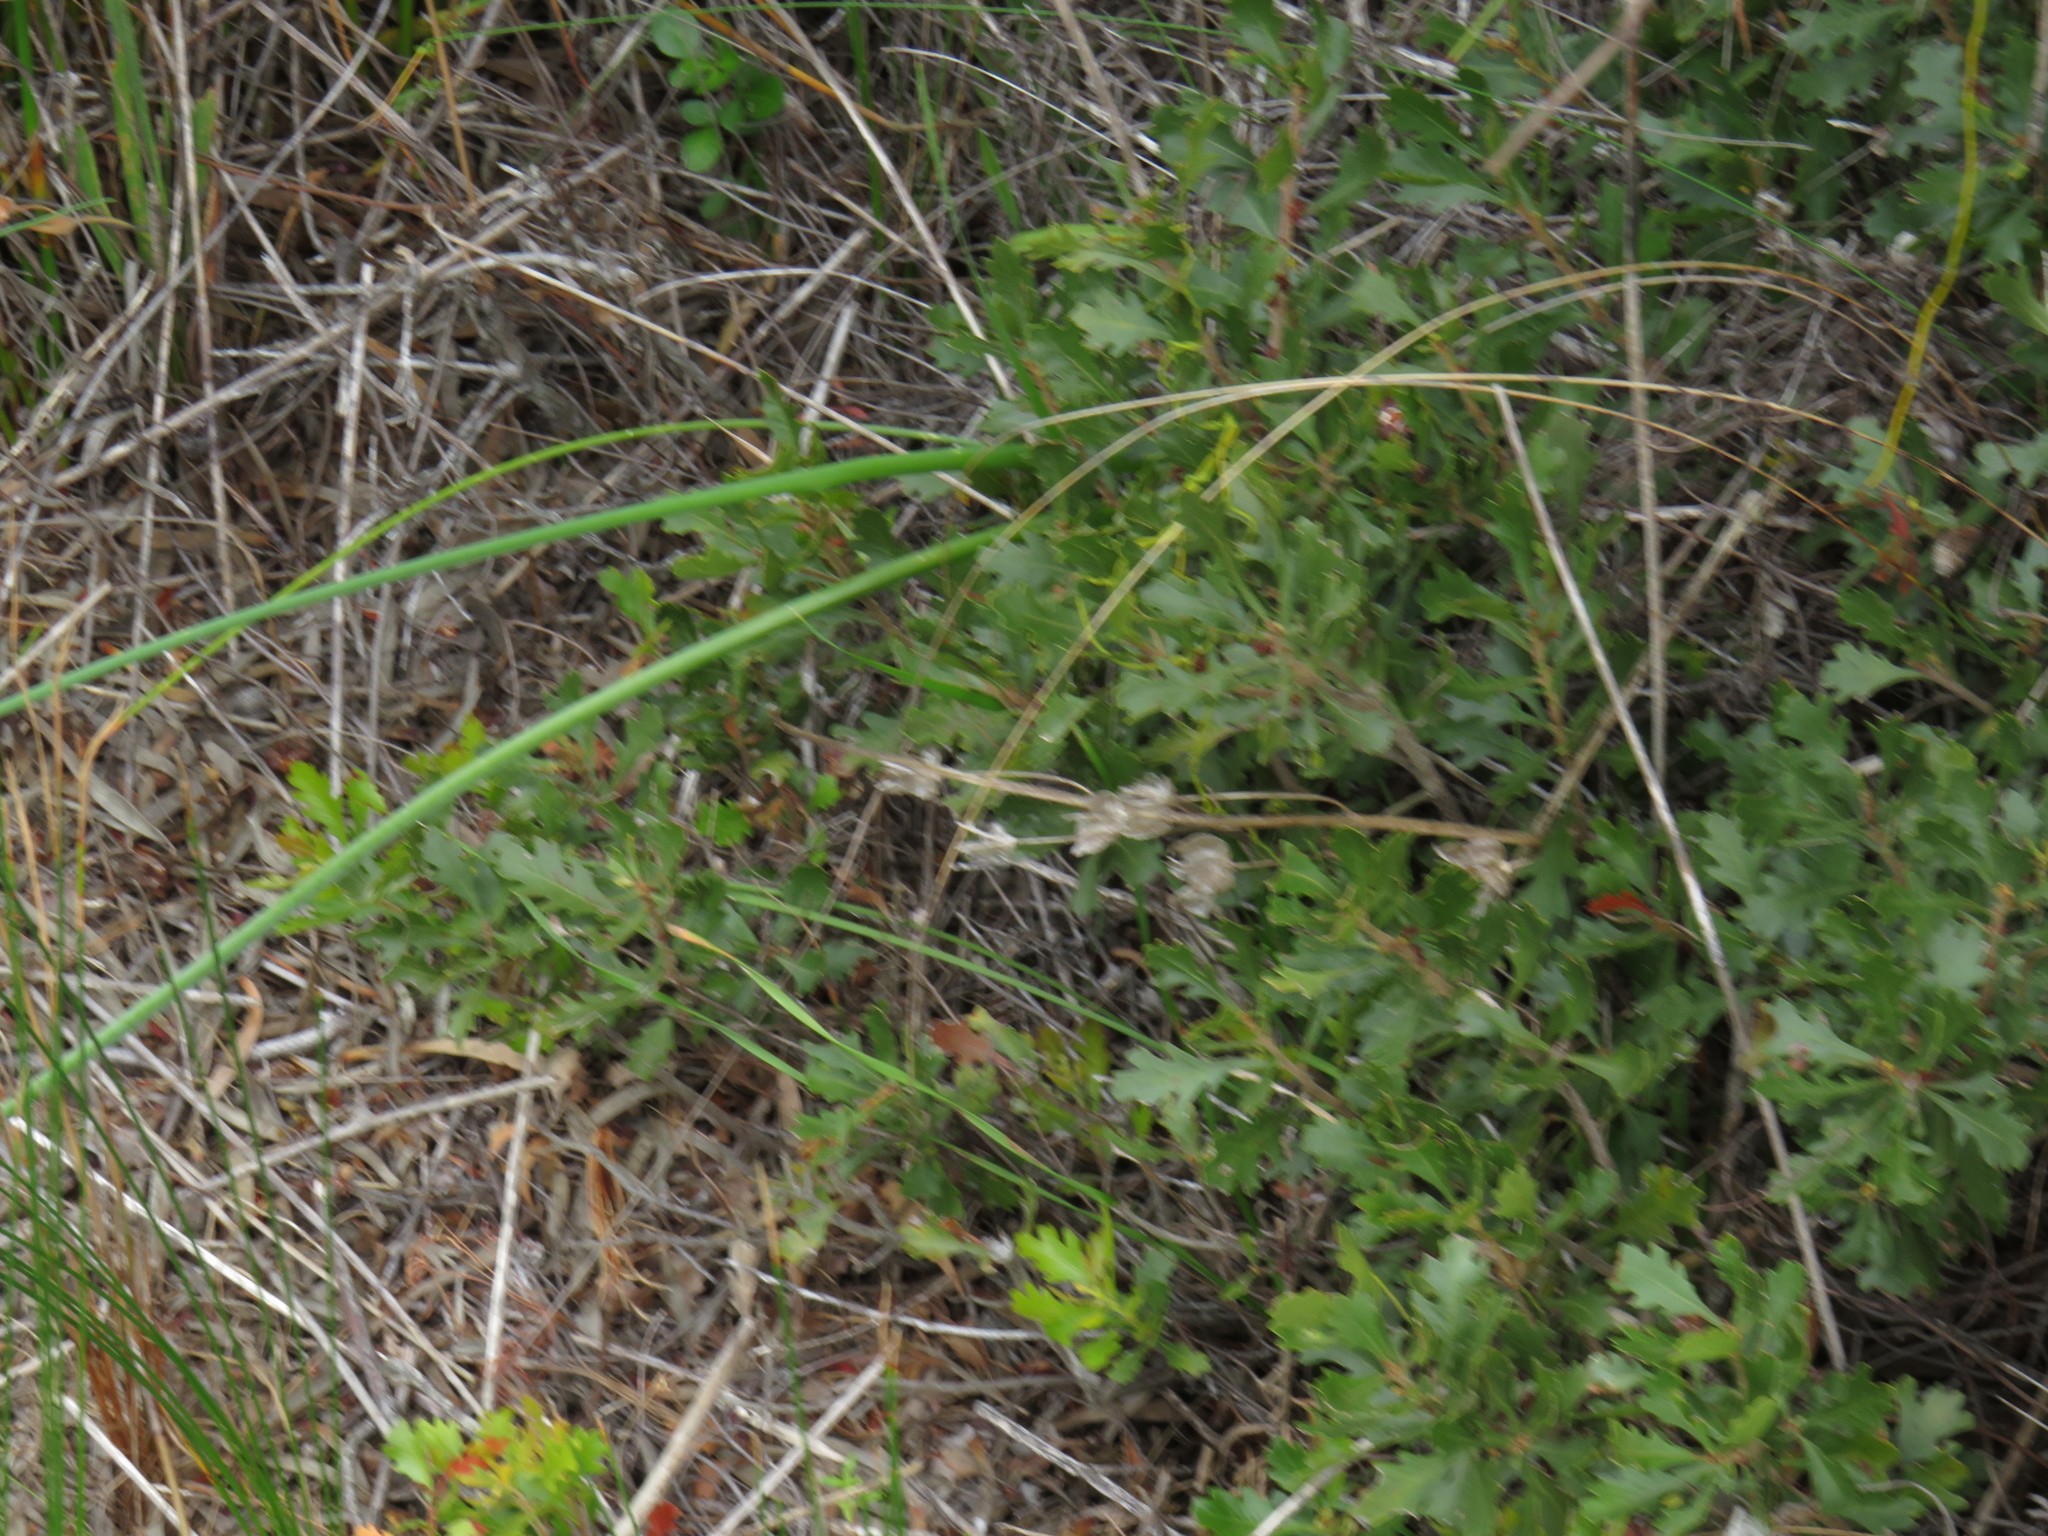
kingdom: Plantae
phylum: Tracheophyta
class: Magnoliopsida
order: Fagales
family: Myricaceae
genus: Morella
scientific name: Morella quercifolia
